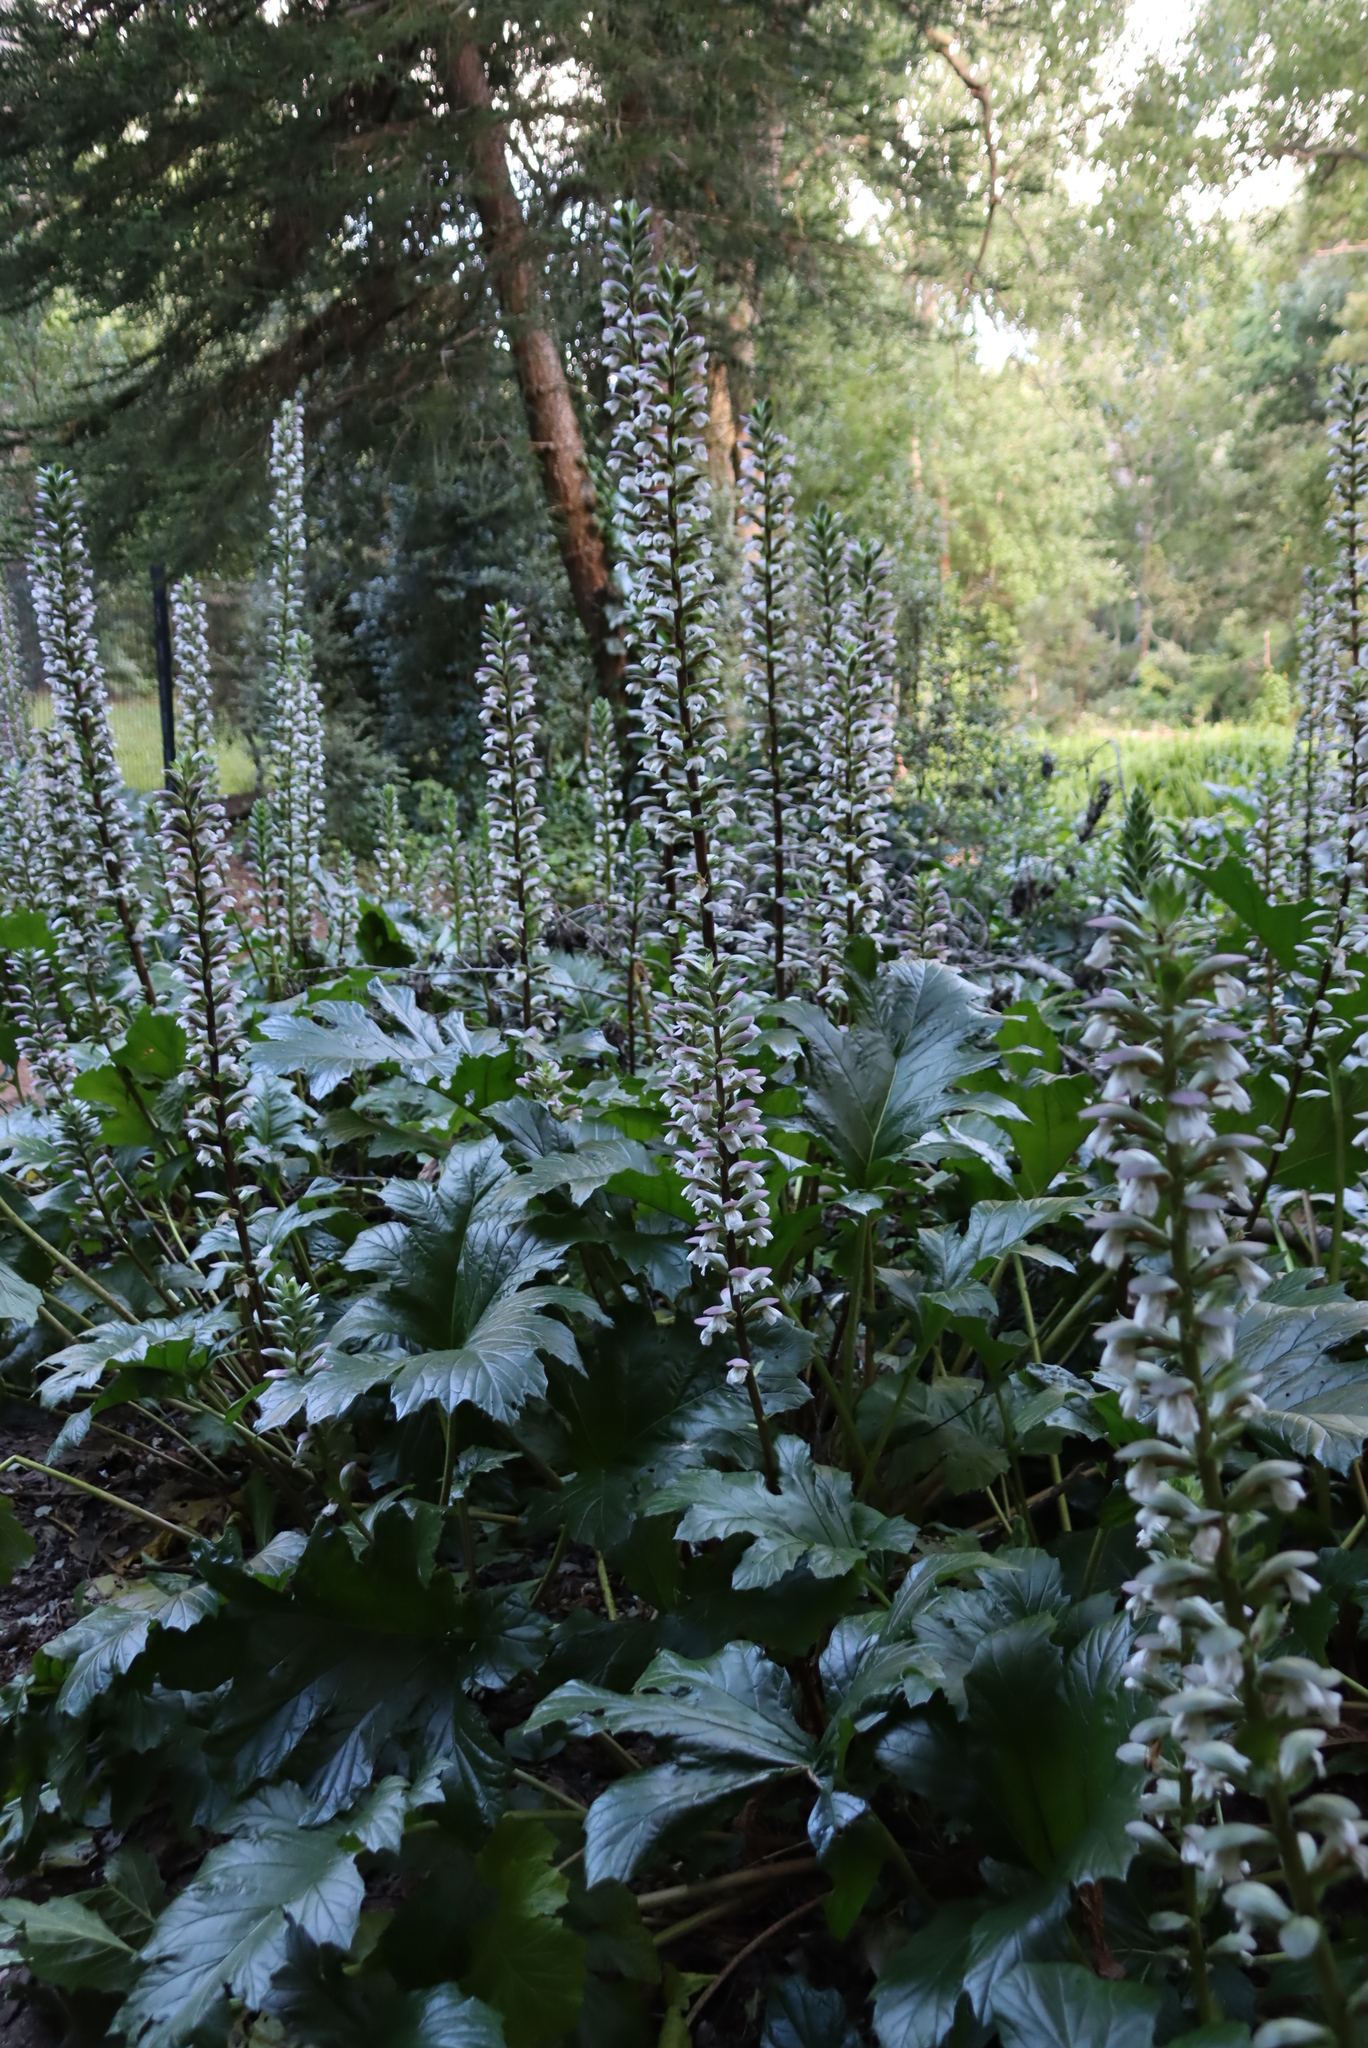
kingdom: Plantae
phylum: Tracheophyta
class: Magnoliopsida
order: Lamiales
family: Acanthaceae
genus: Acanthus
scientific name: Acanthus mollis
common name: Bear's-breech
